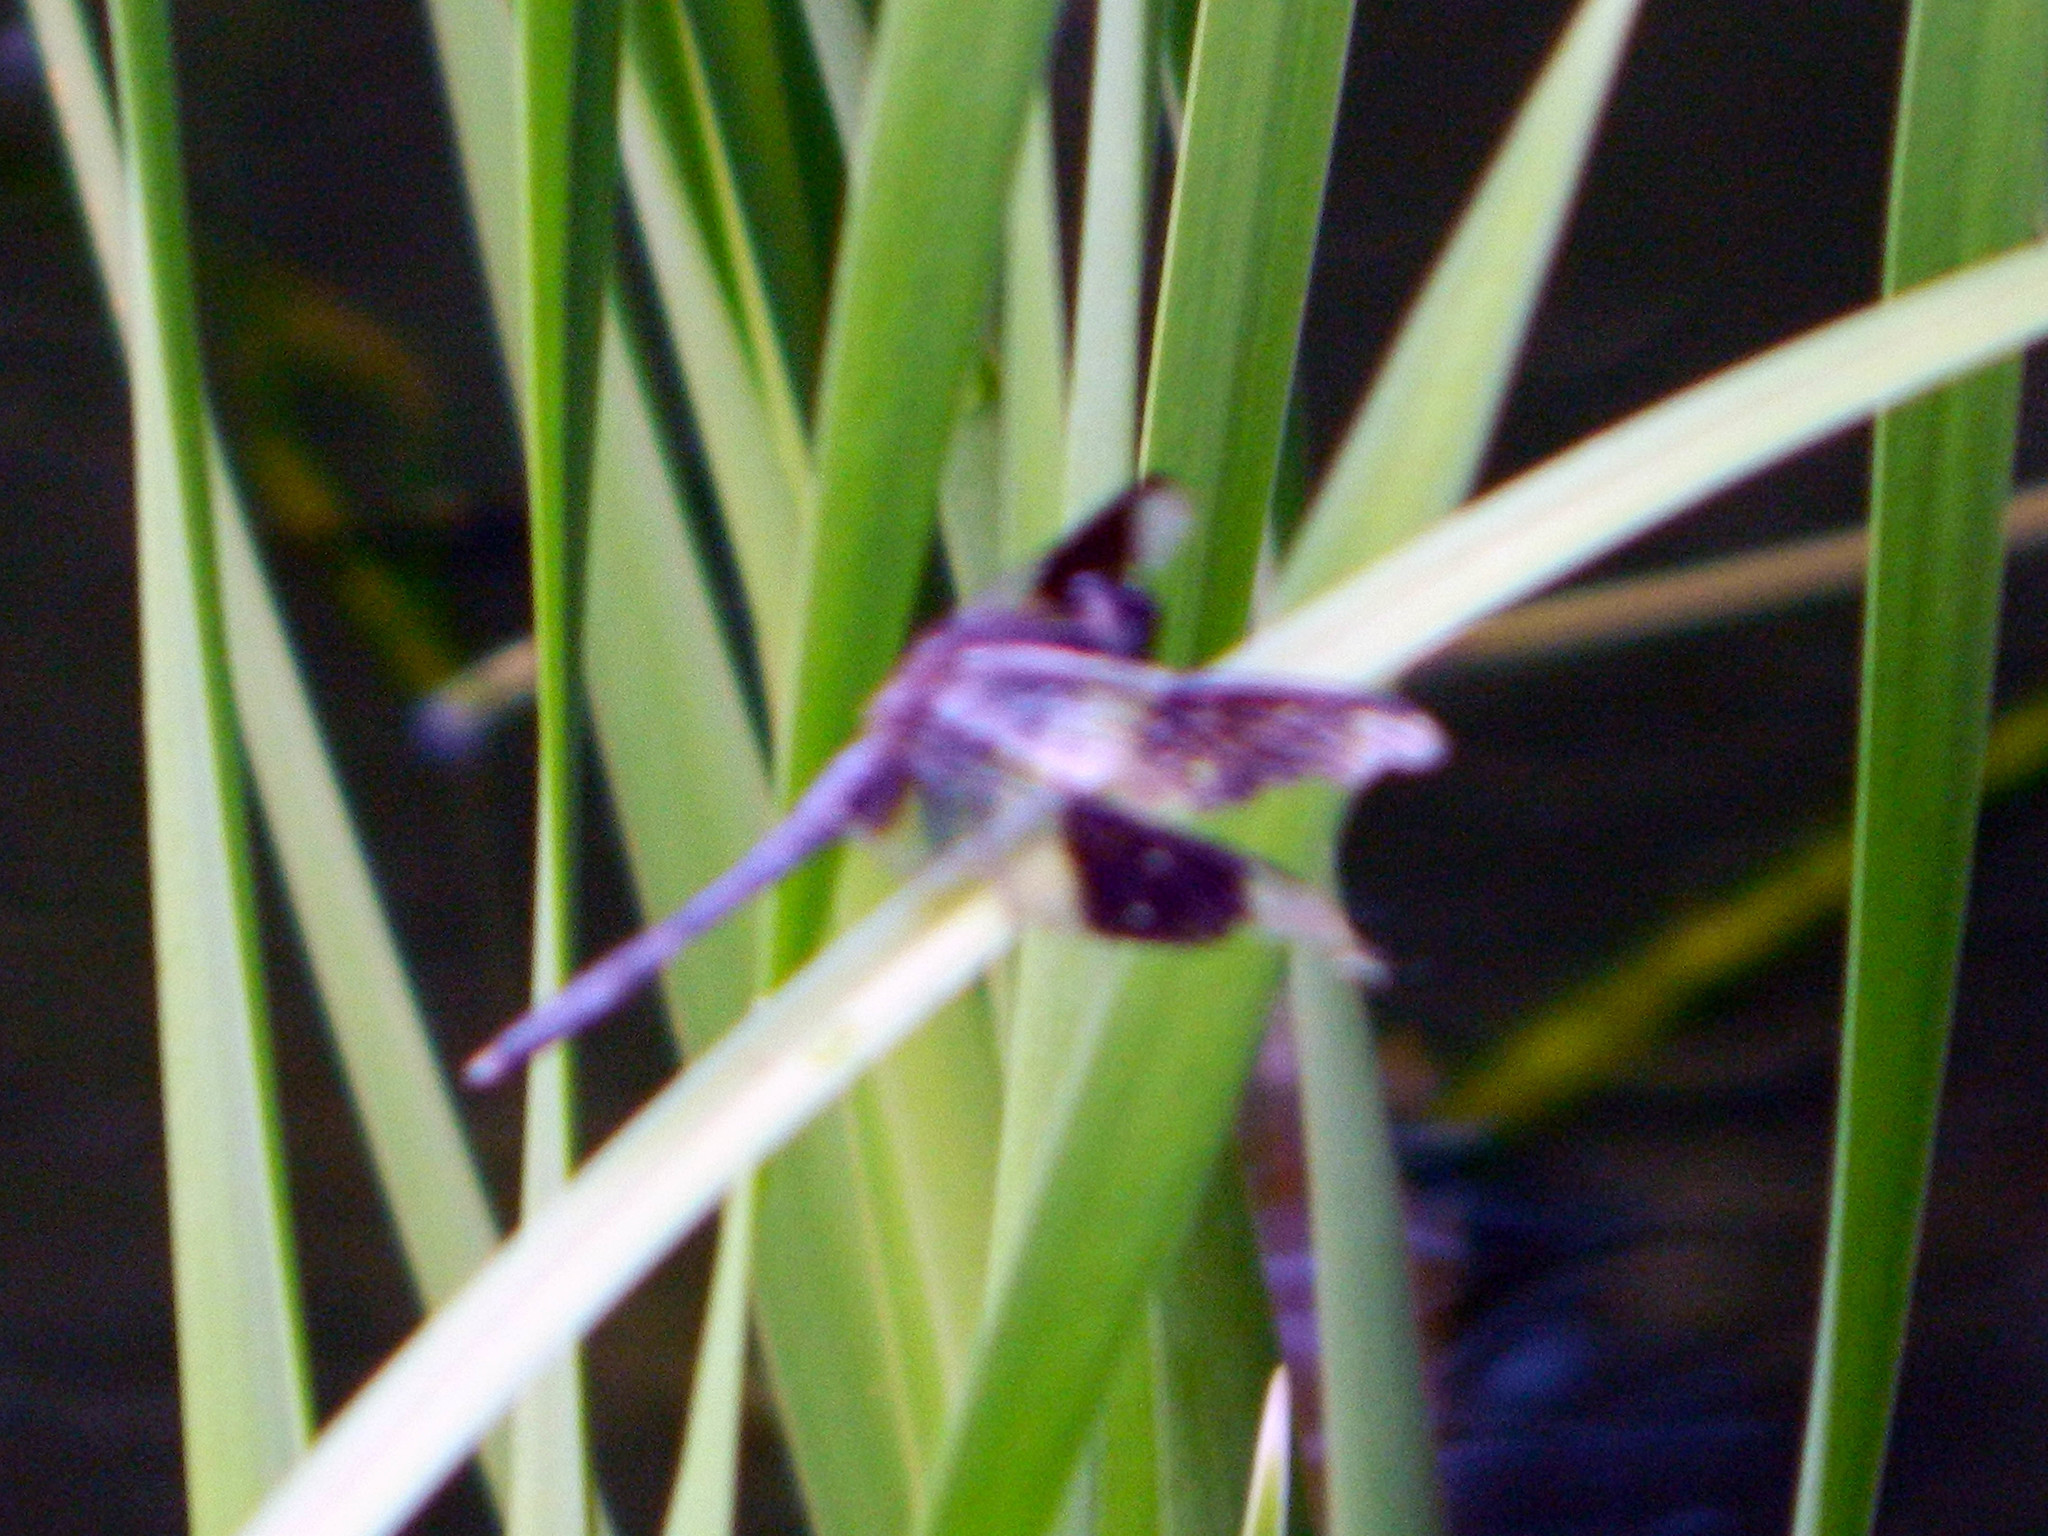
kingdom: Animalia
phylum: Arthropoda
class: Insecta
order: Odonata
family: Libellulidae
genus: Erythrodiplax
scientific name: Erythrodiplax umbrata
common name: Band-winged dragonlet
